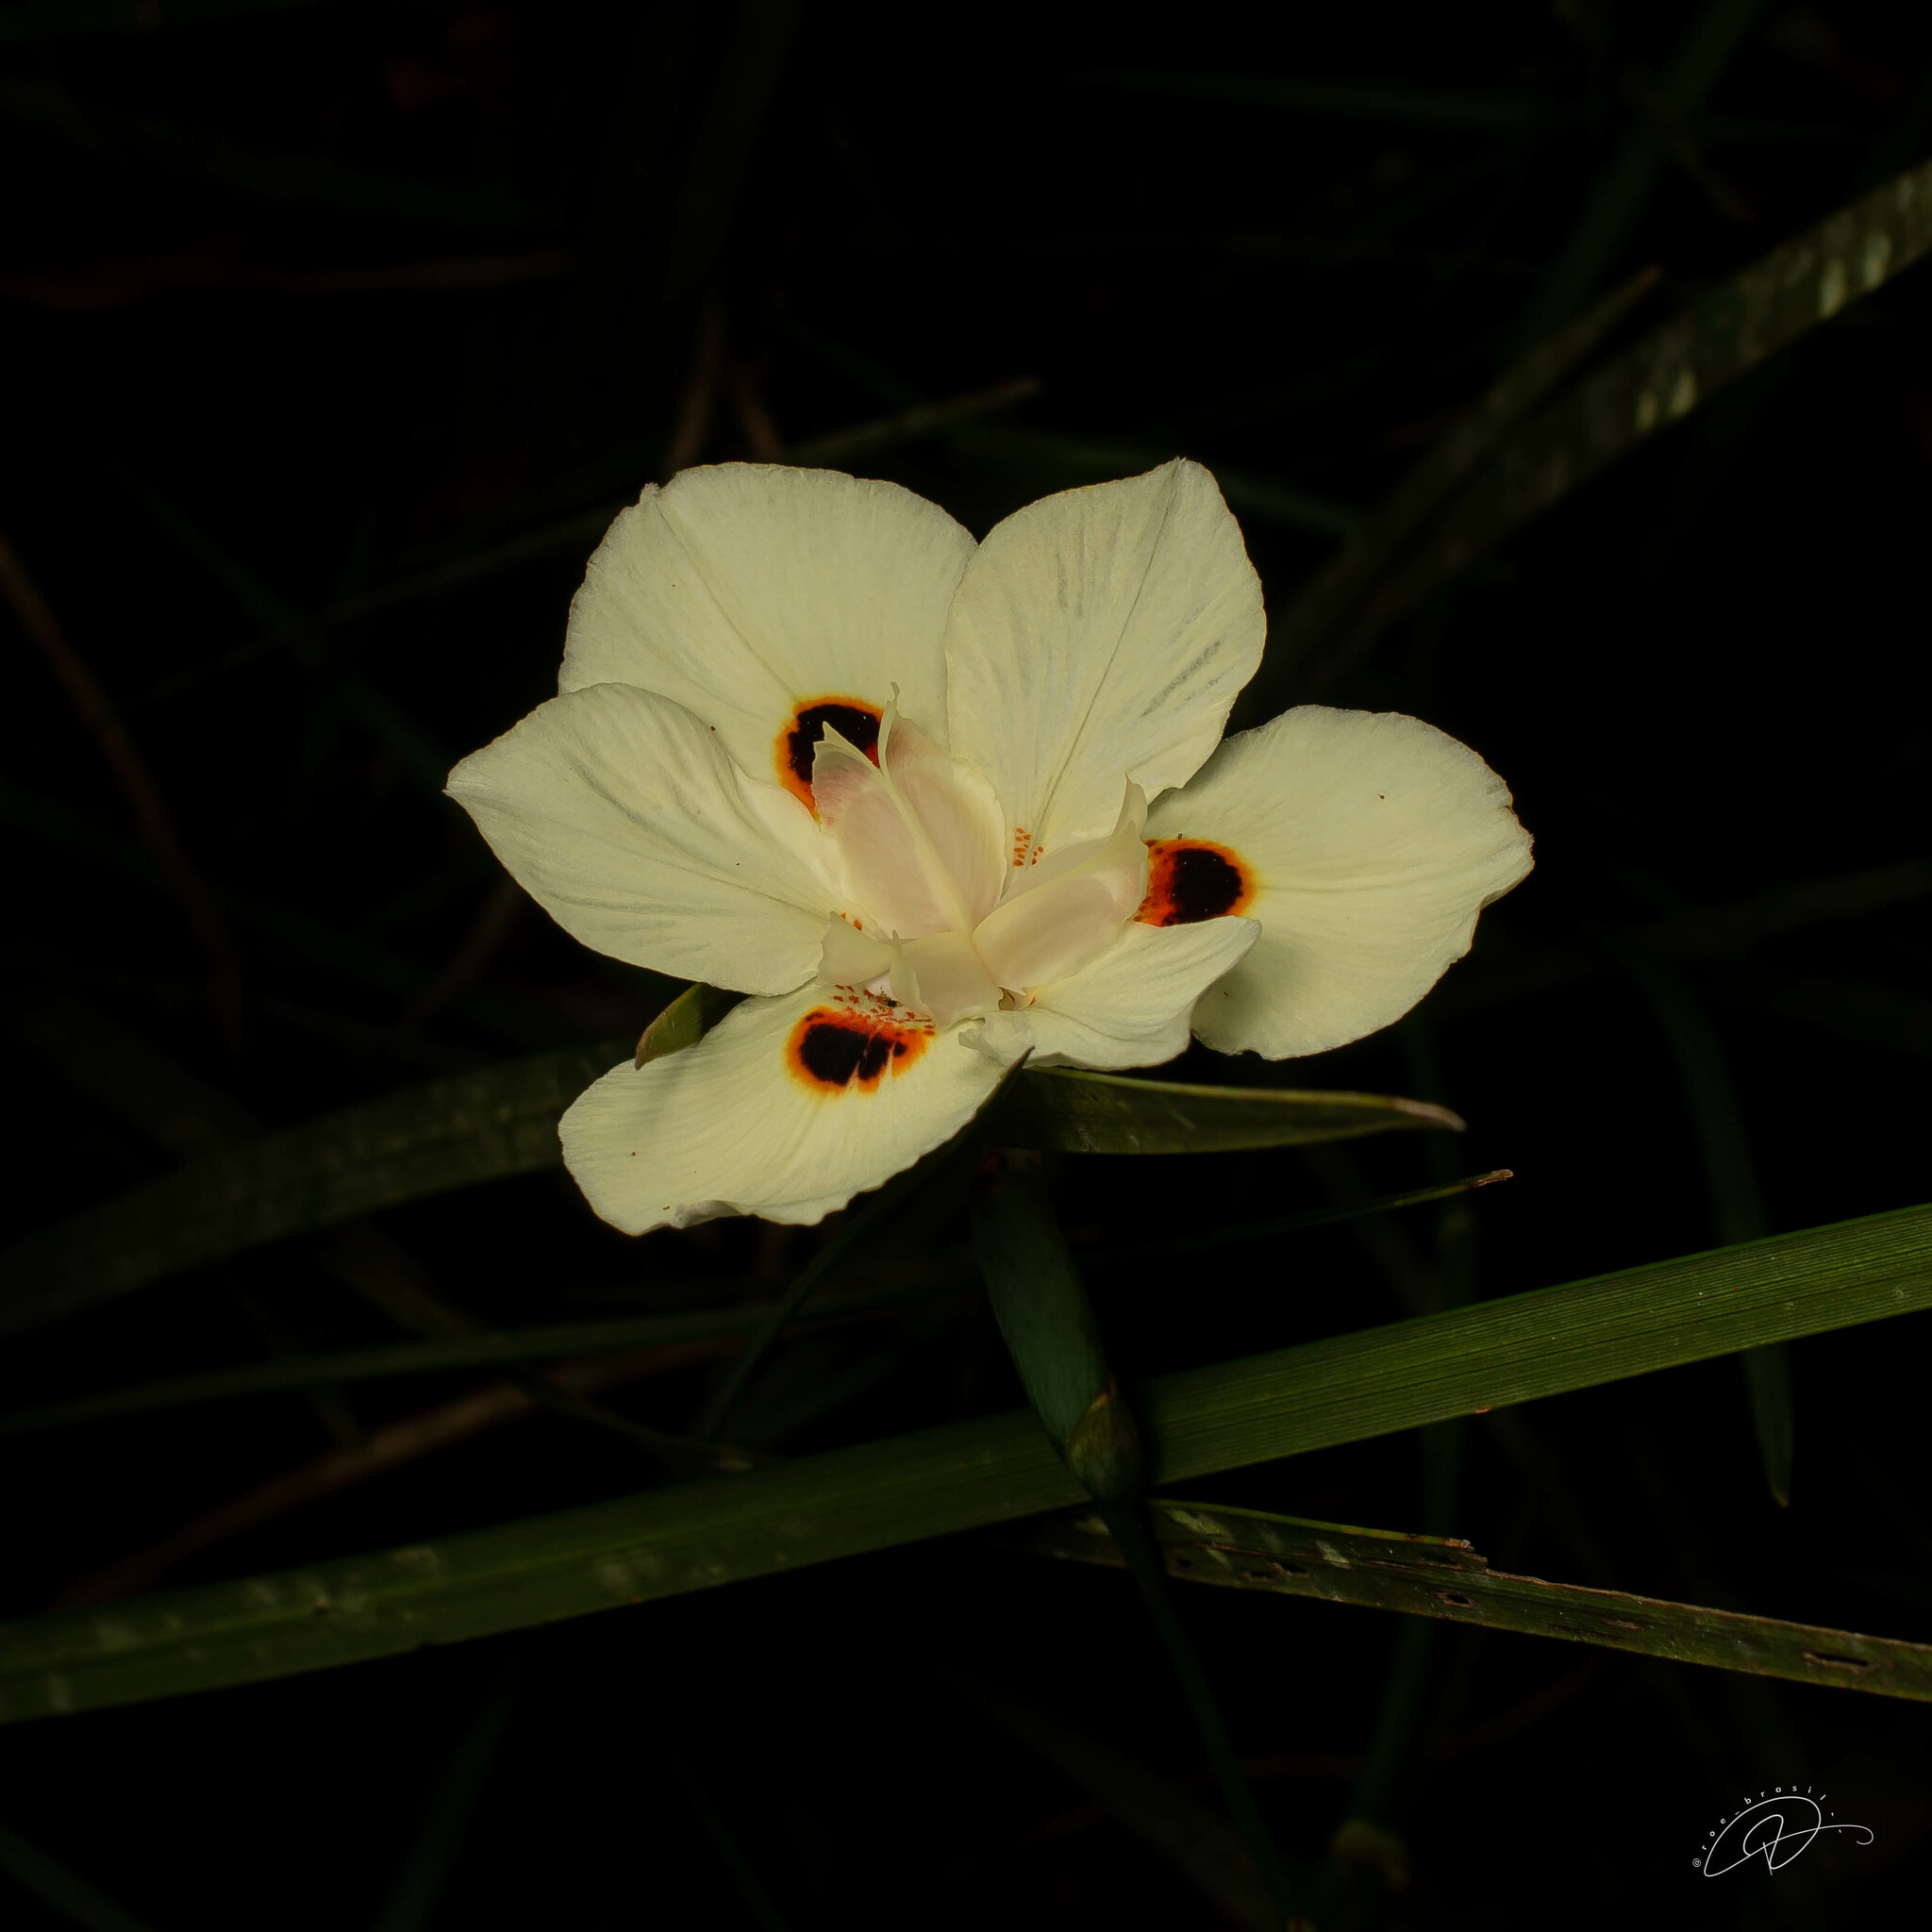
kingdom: Plantae
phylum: Tracheophyta
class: Liliopsida
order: Asparagales
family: Iridaceae
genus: Dietes
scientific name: Dietes bicolor
